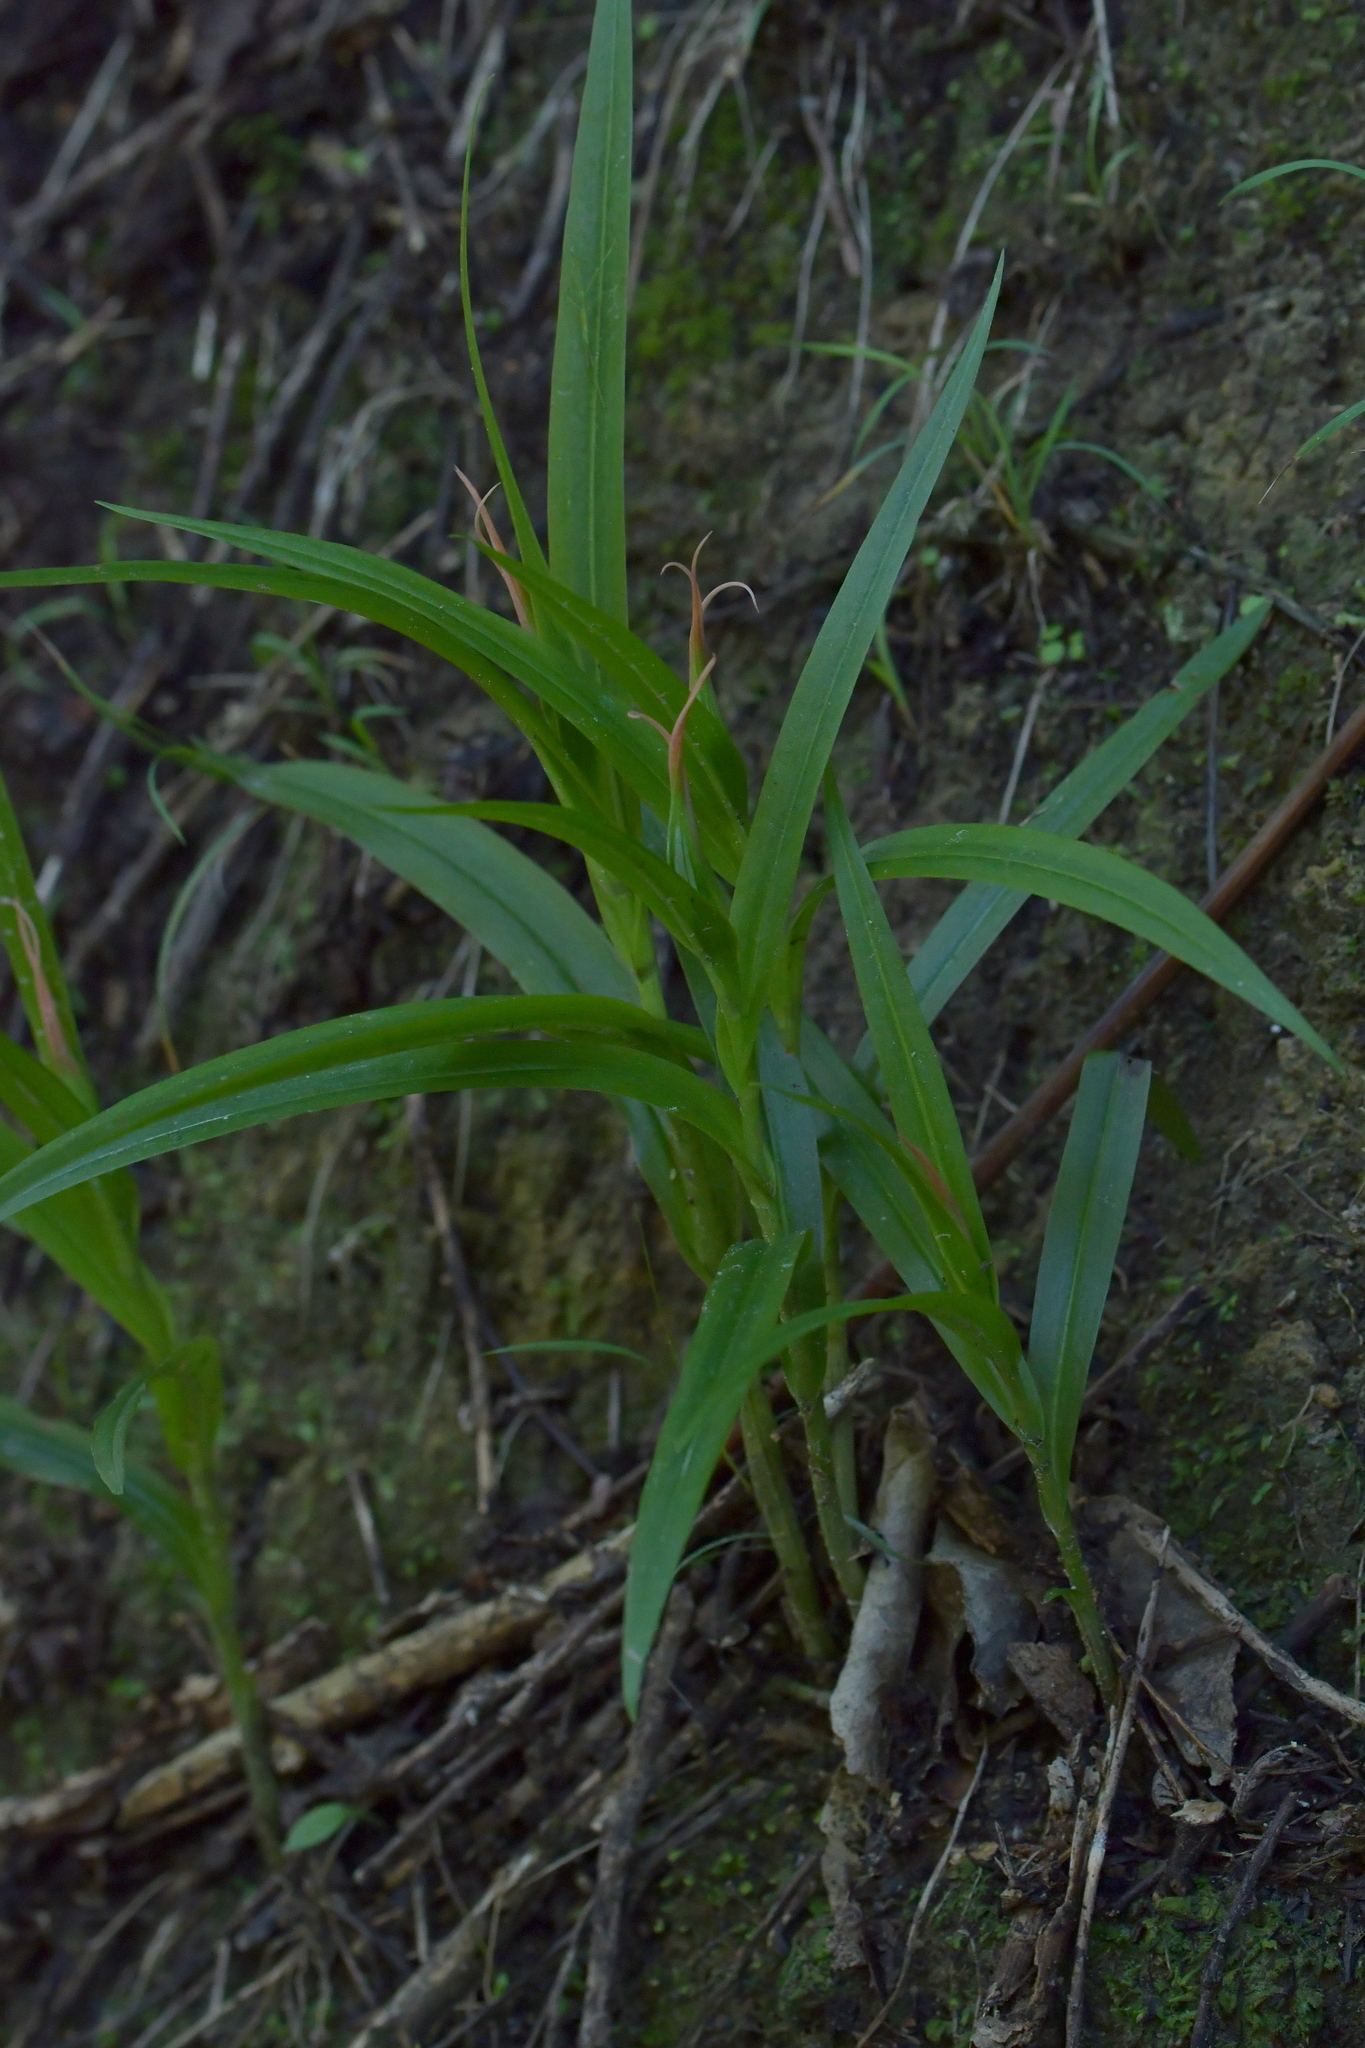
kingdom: Plantae
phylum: Tracheophyta
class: Liliopsida
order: Asparagales
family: Orchidaceae
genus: Pterostylis
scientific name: Pterostylis banksii
